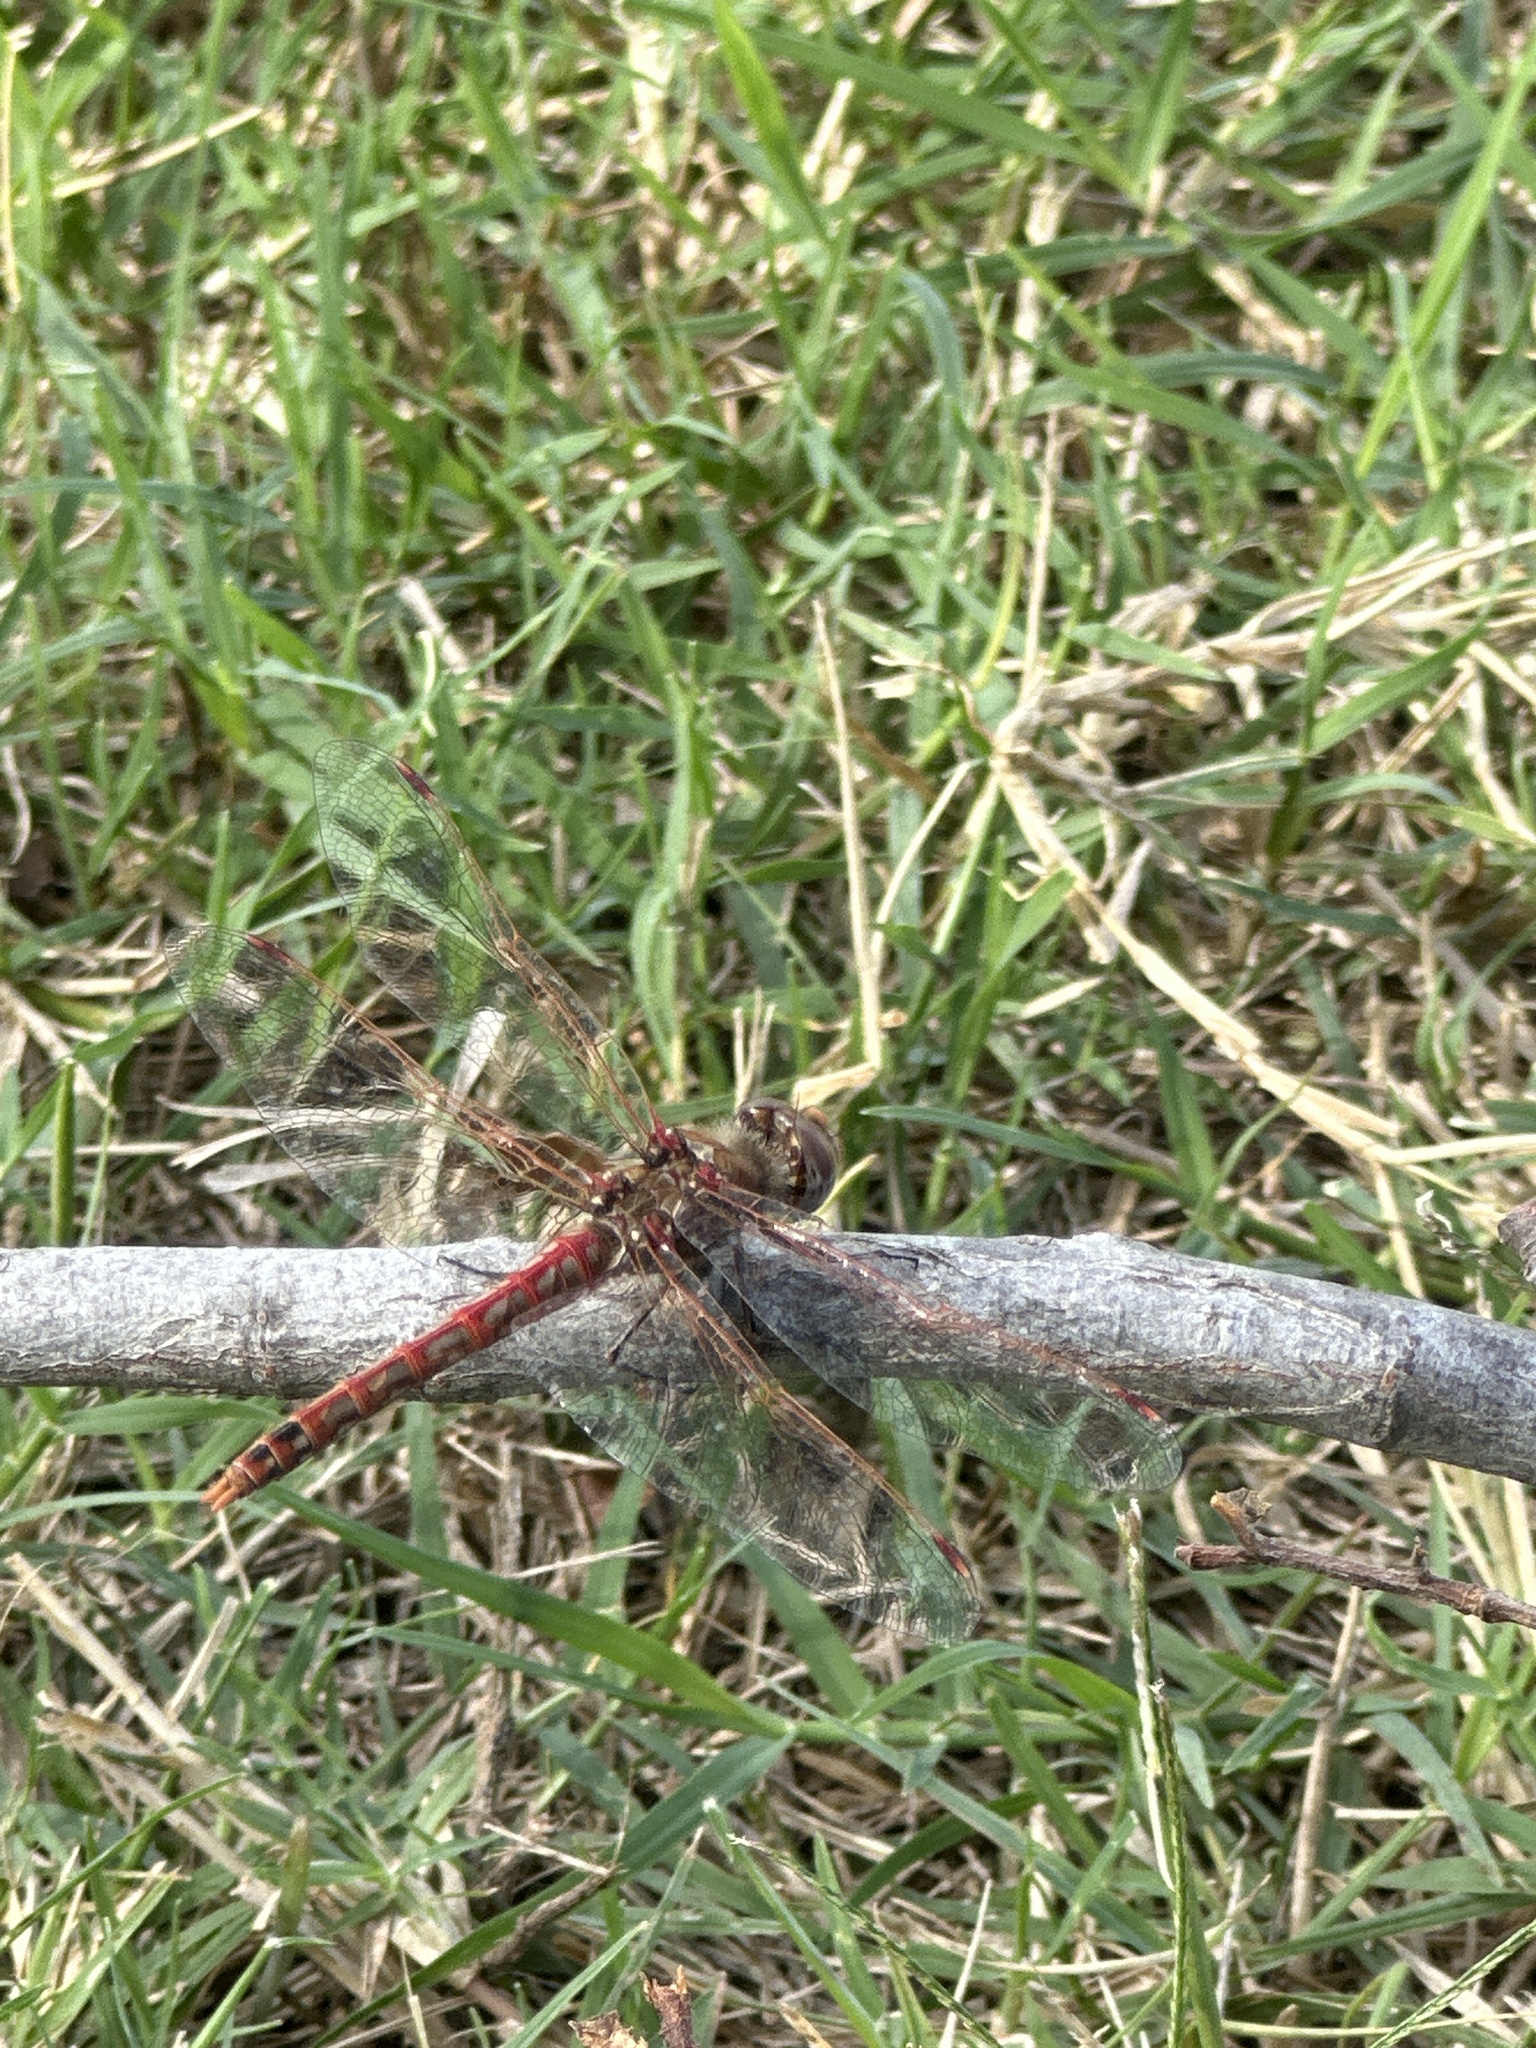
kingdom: Animalia
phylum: Arthropoda
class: Insecta
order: Odonata
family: Libellulidae
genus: Sympetrum
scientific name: Sympetrum corruptum
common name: Variegated meadowhawk
